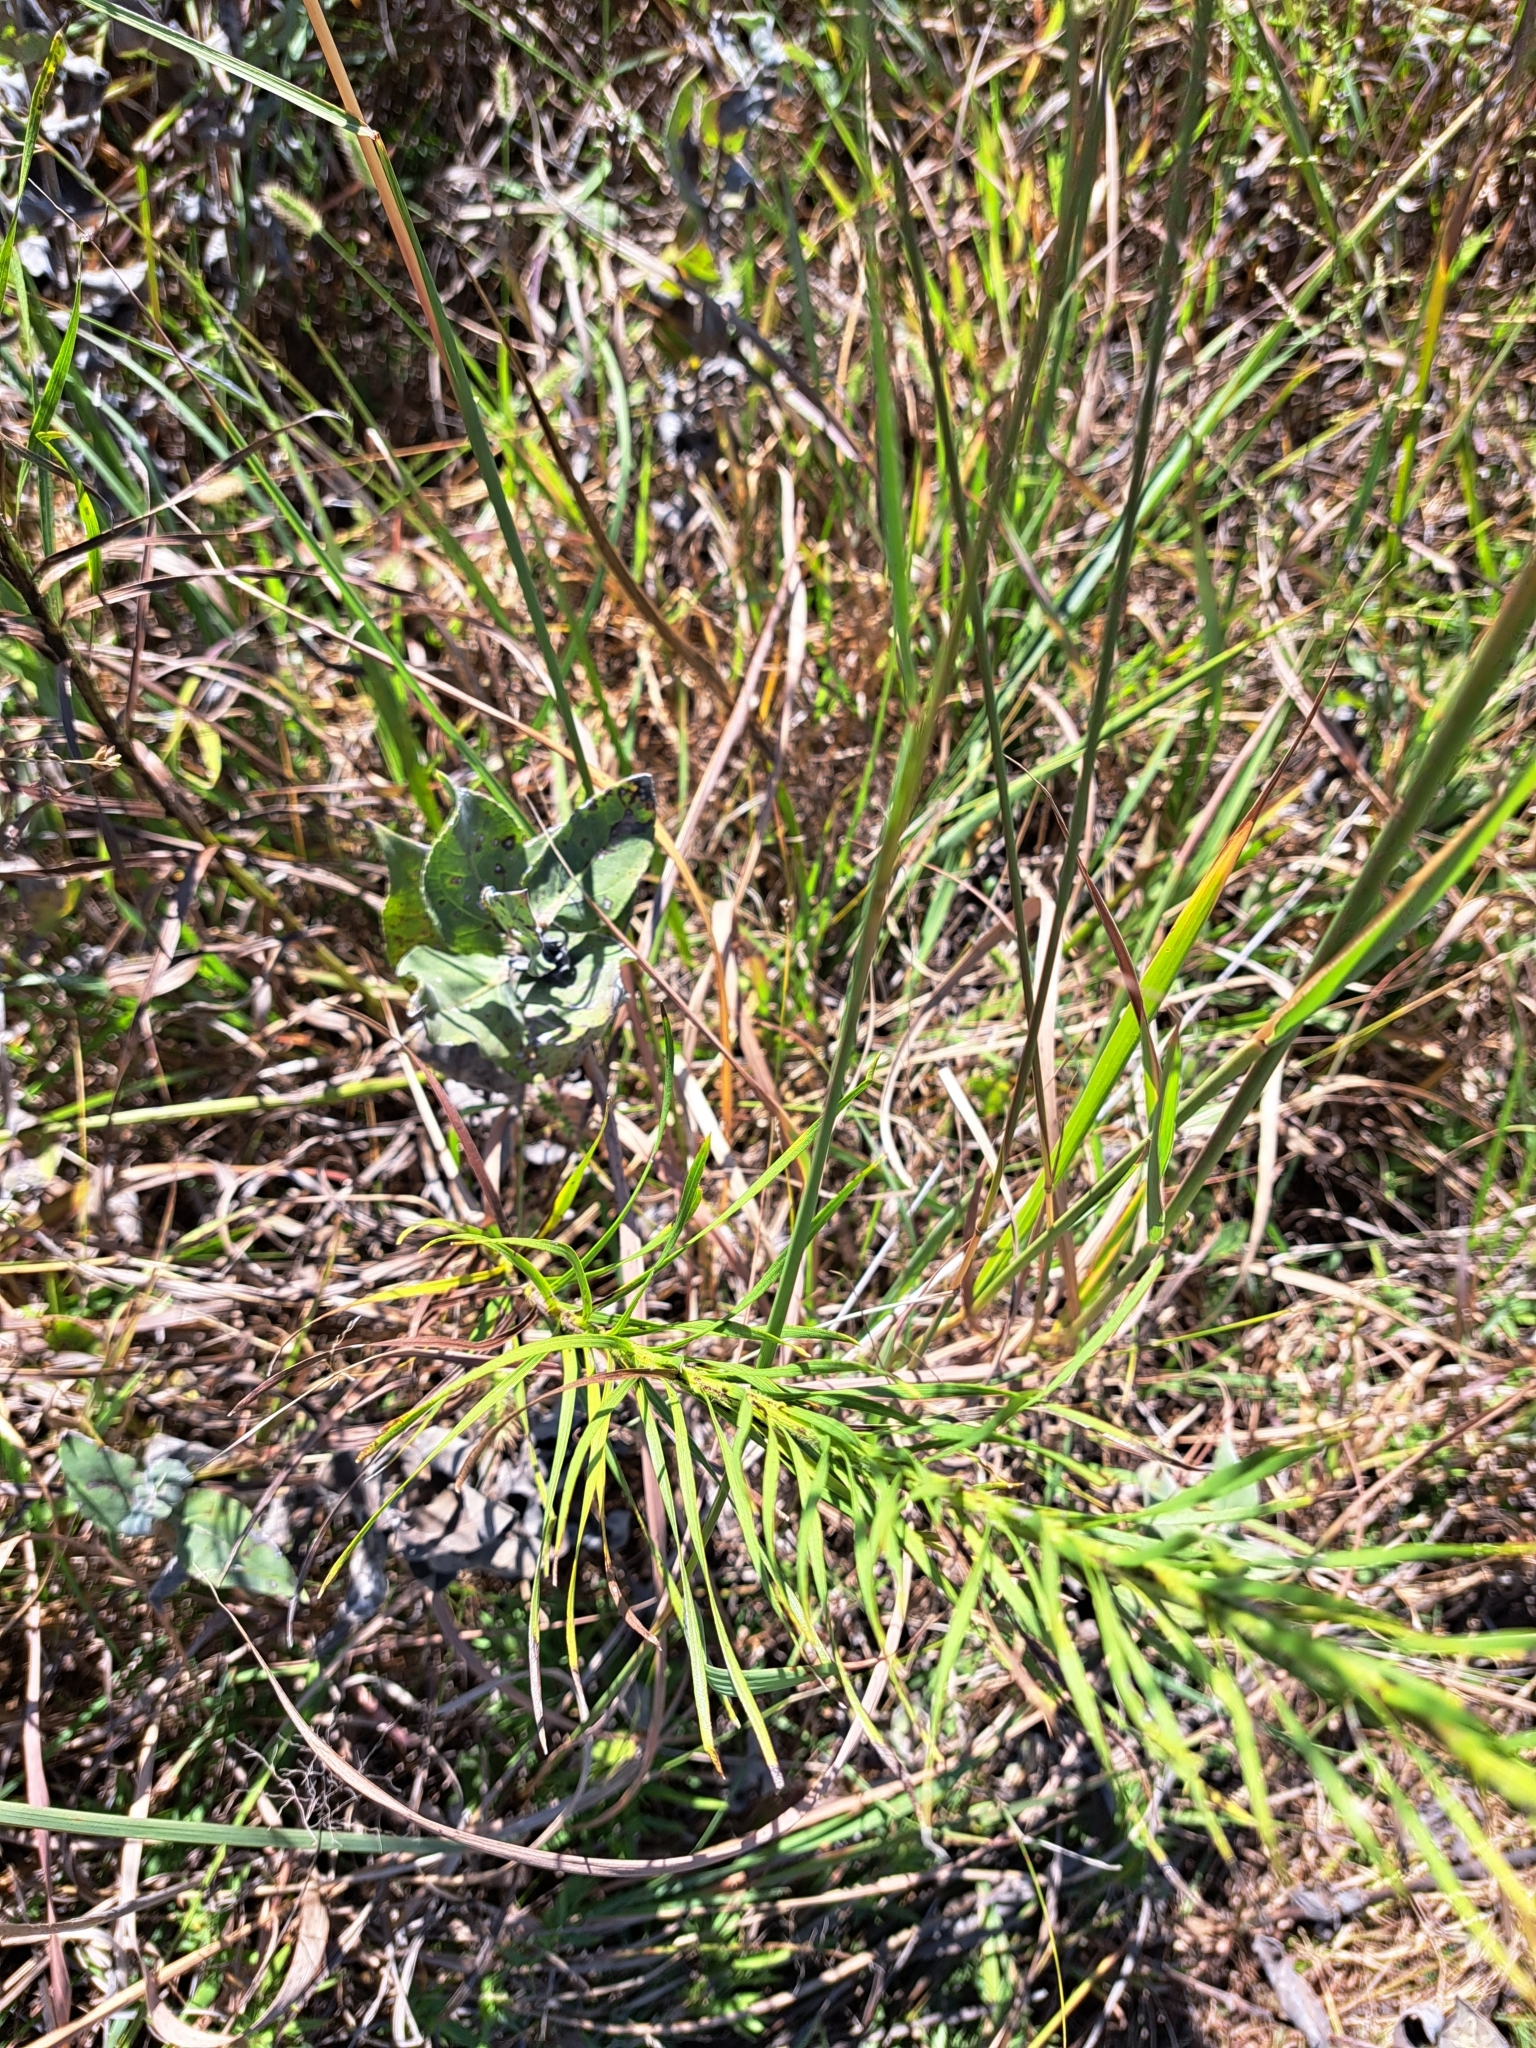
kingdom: Plantae
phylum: Tracheophyta
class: Magnoliopsida
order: Asterales
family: Asteraceae
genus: Liatris
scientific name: Liatris pycnostachya
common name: Cattail gayfeather
